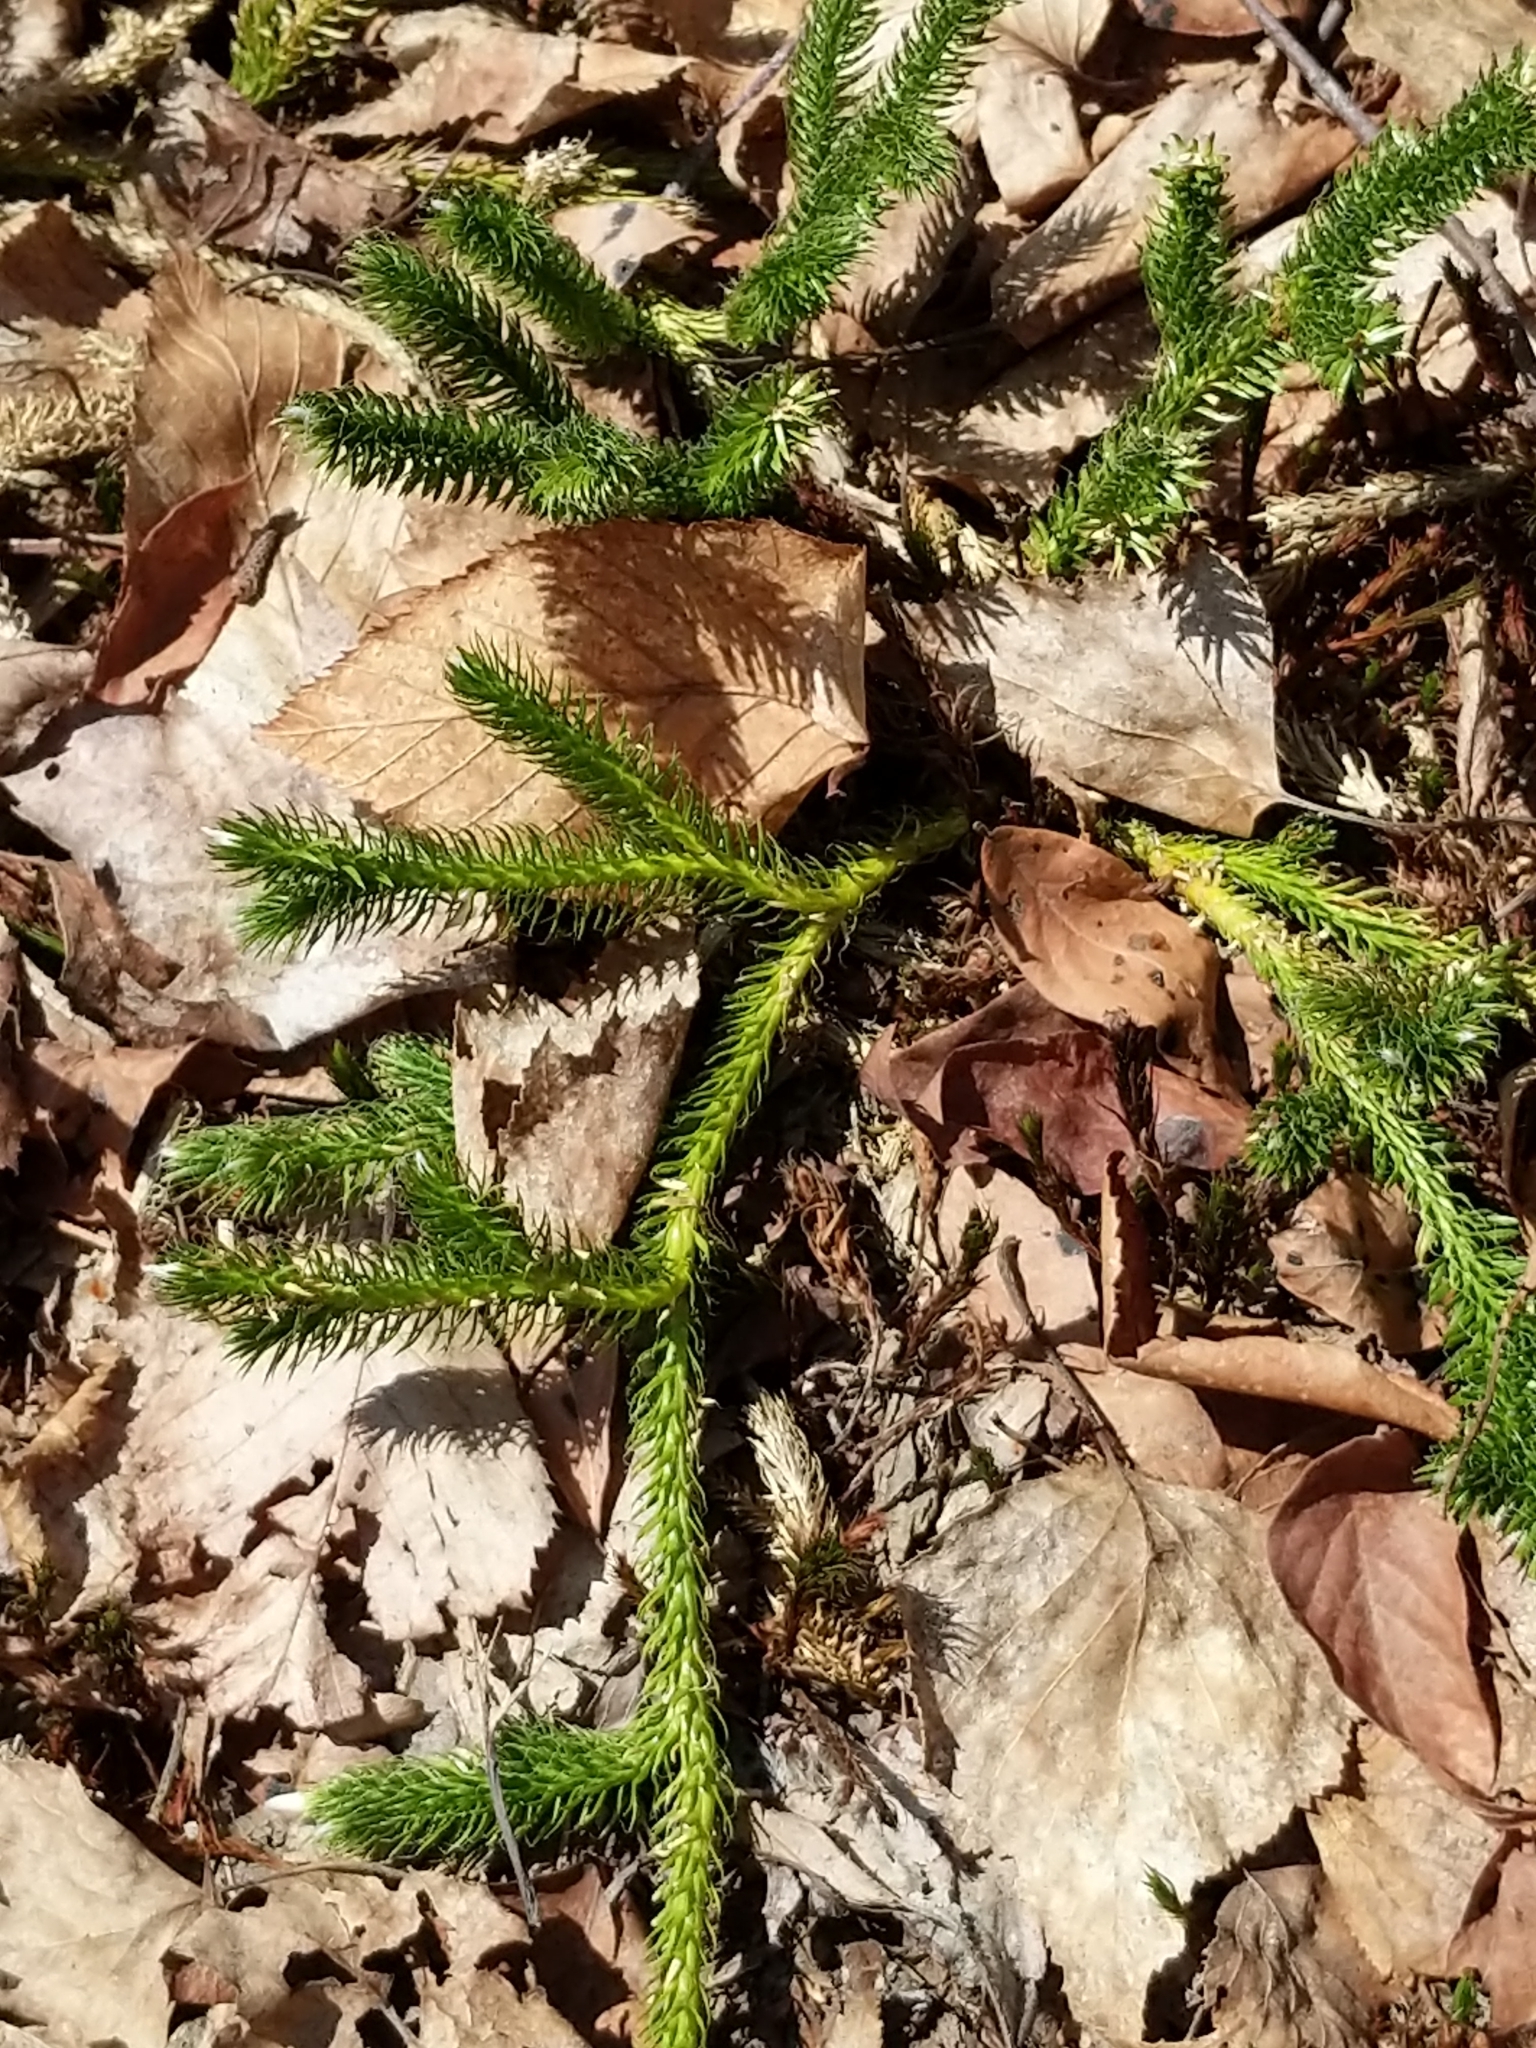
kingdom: Plantae
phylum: Tracheophyta
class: Lycopodiopsida
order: Lycopodiales
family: Lycopodiaceae
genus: Lycopodium
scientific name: Lycopodium clavatum
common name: Stag's-horn clubmoss
